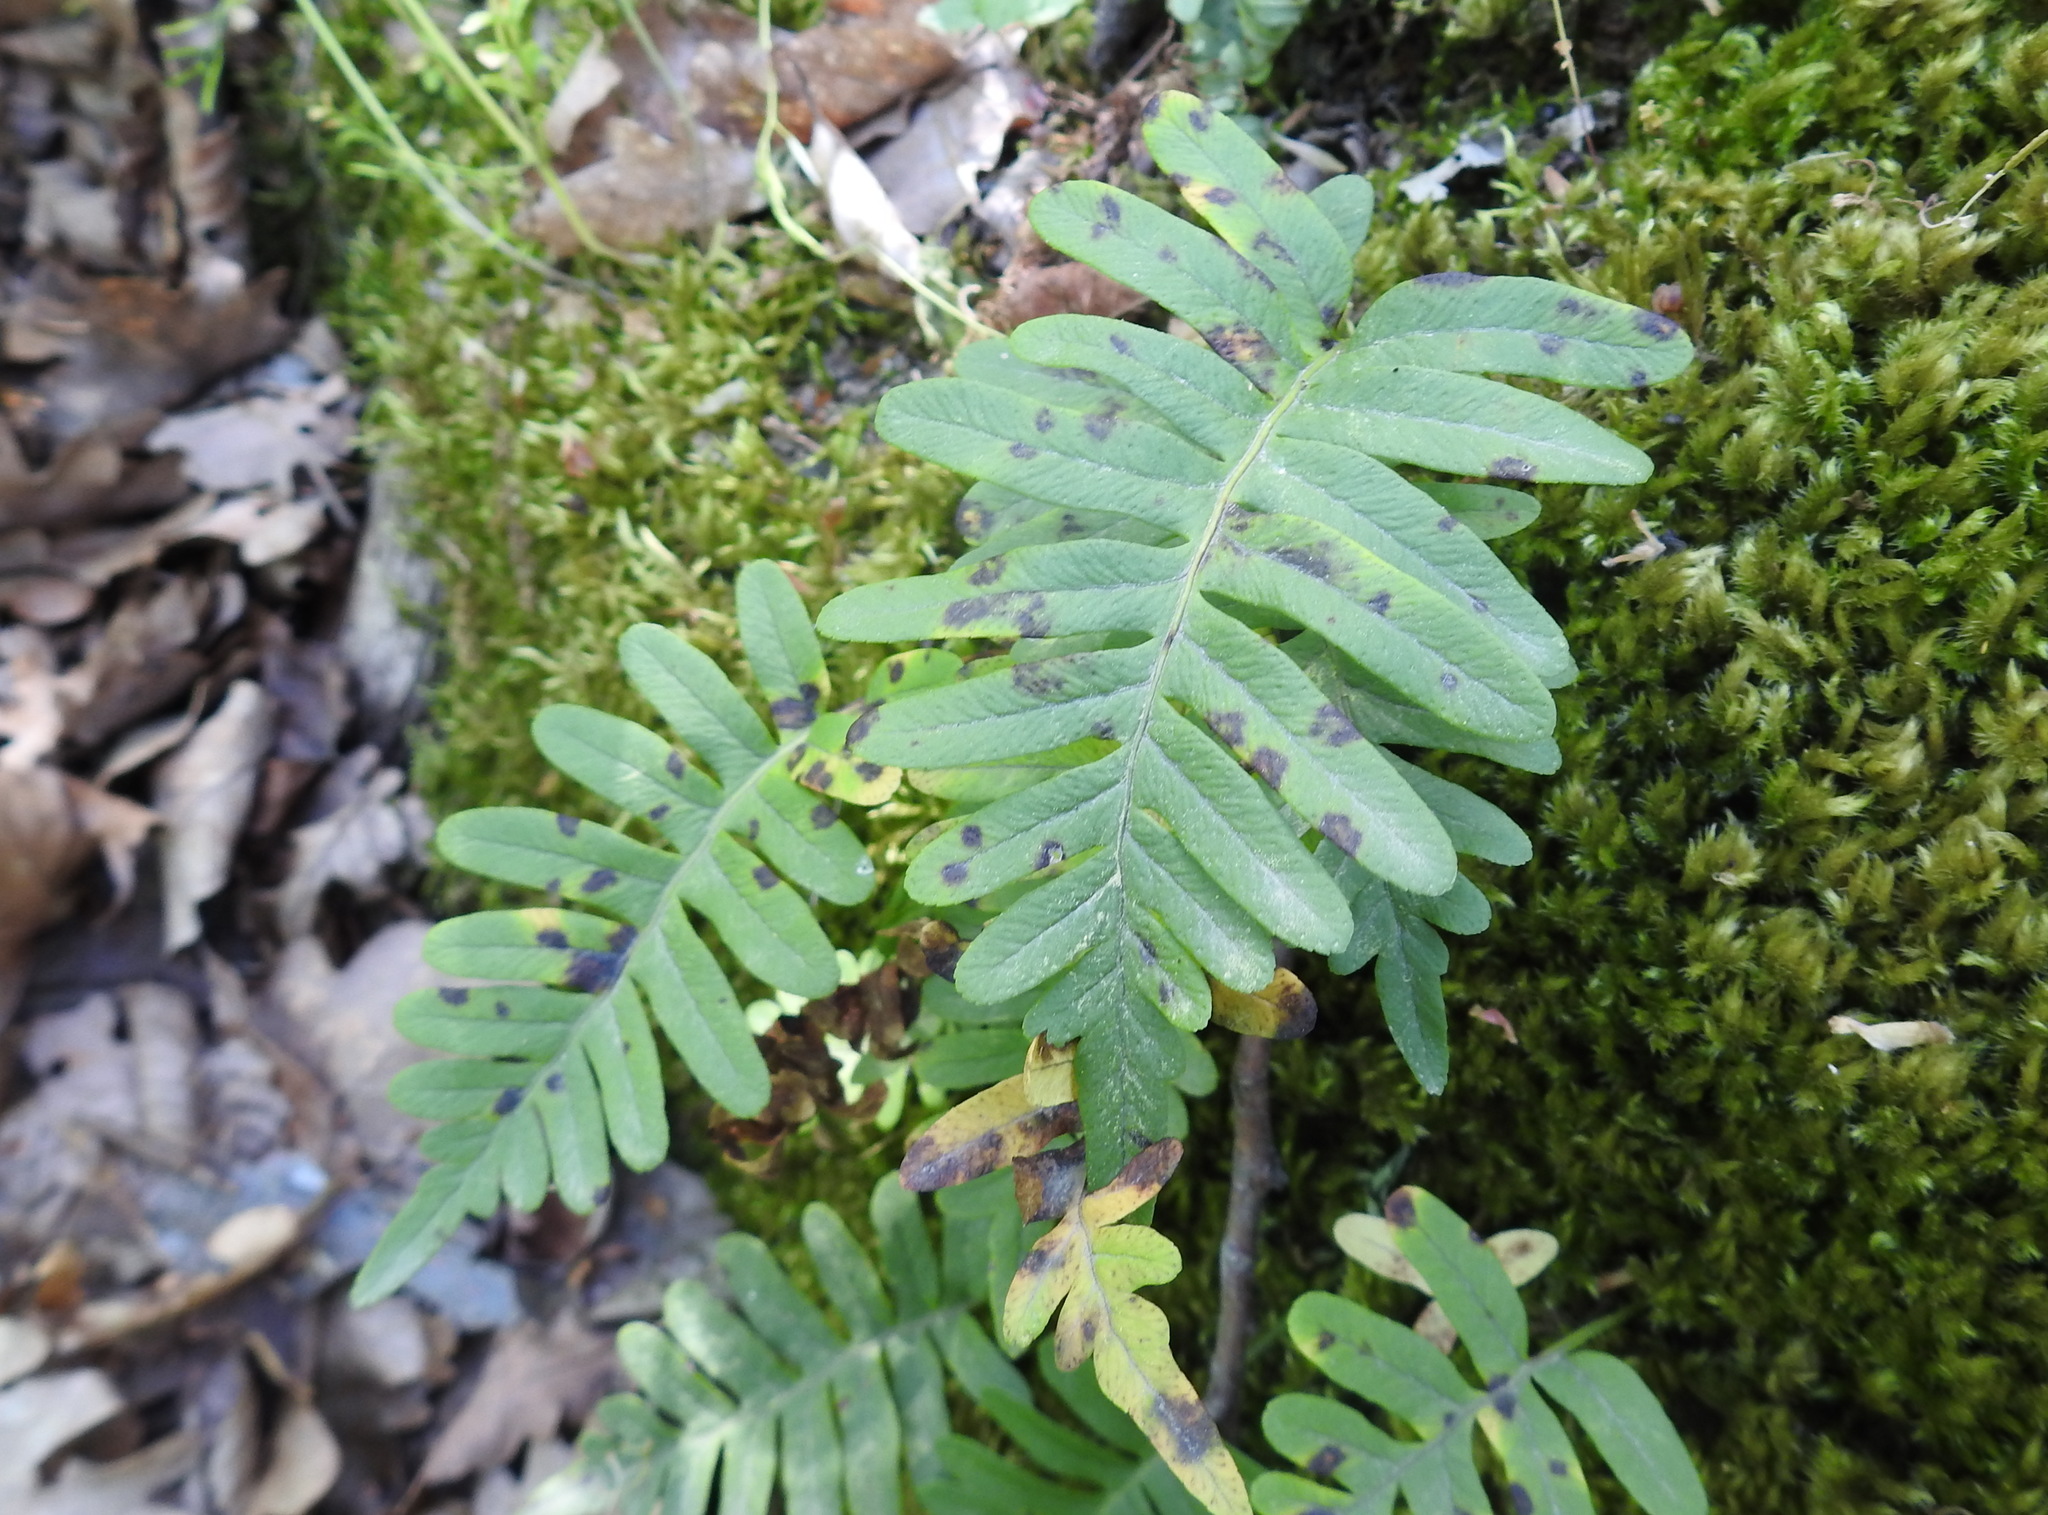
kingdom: Plantae
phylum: Tracheophyta
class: Polypodiopsida
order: Polypodiales
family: Polypodiaceae
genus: Polypodium
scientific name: Polypodium vulgare
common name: Common polypody
